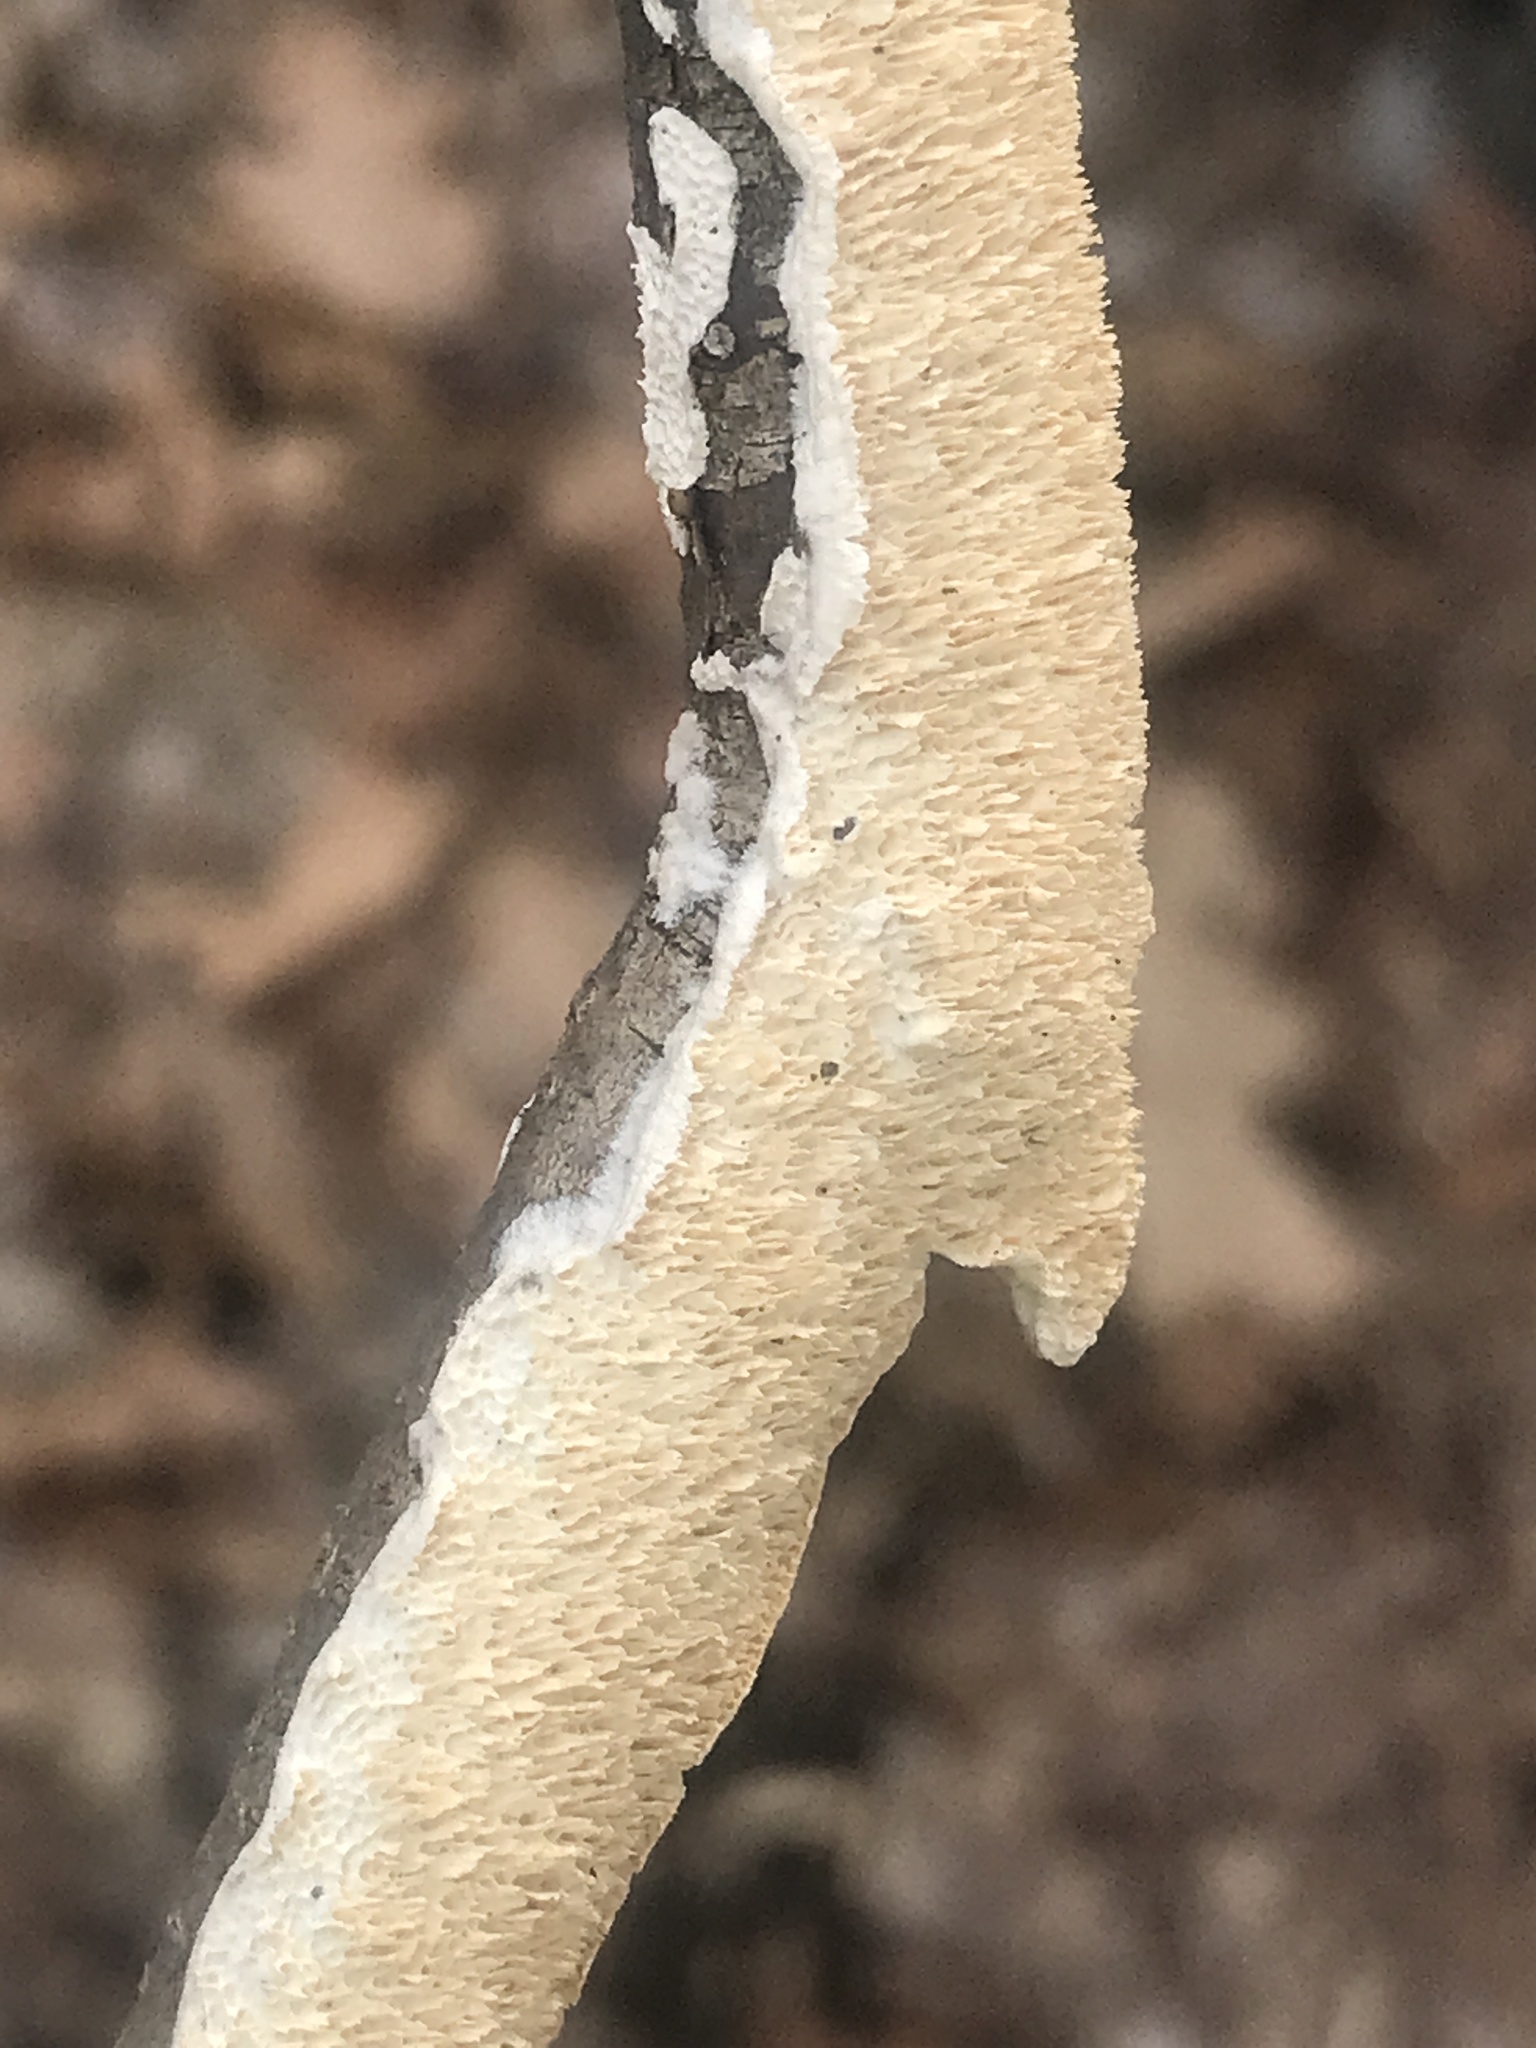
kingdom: Fungi
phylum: Basidiomycota
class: Agaricomycetes
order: Polyporales
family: Irpicaceae
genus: Irpex
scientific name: Irpex lacteus
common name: Milk-white toothed polypore
